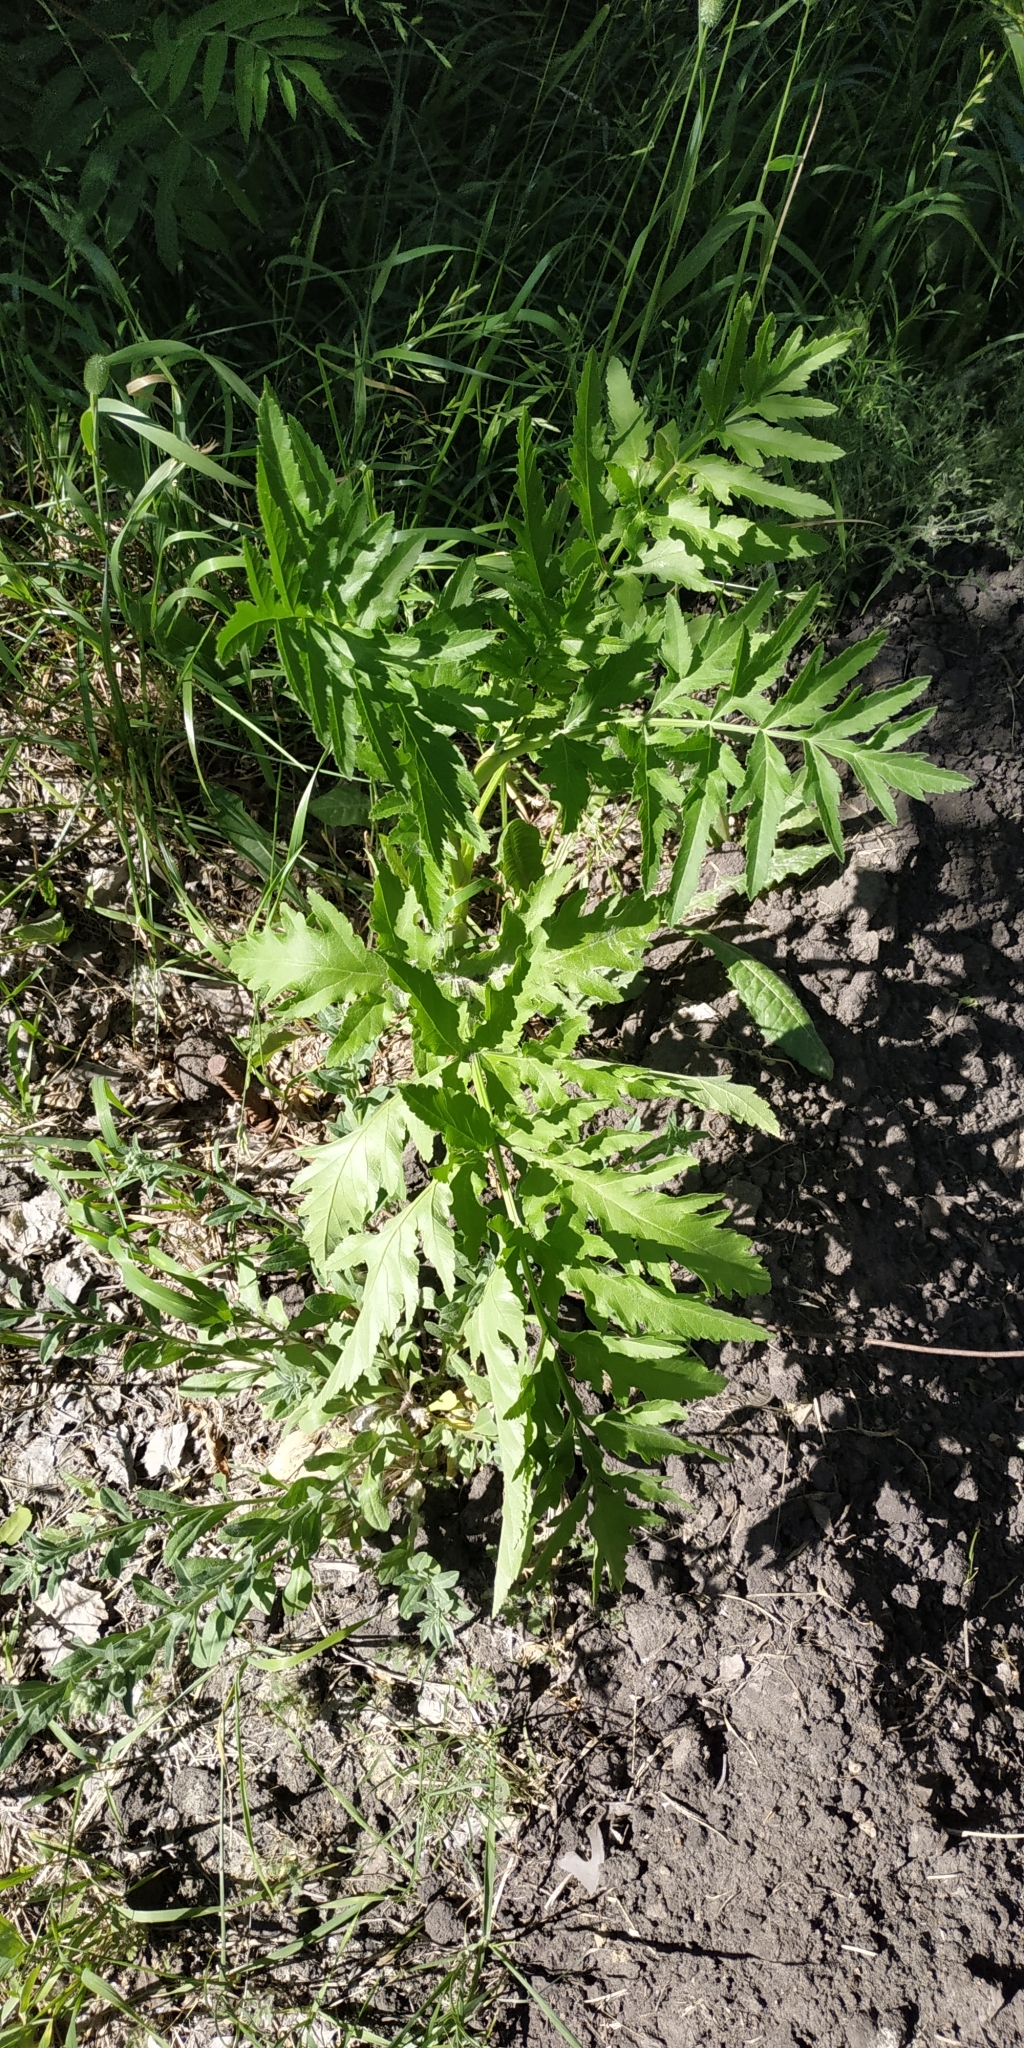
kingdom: Plantae
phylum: Tracheophyta
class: Magnoliopsida
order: Apiales
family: Apiaceae
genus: Pastinaca
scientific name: Pastinaca sativa
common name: Wild parsnip
